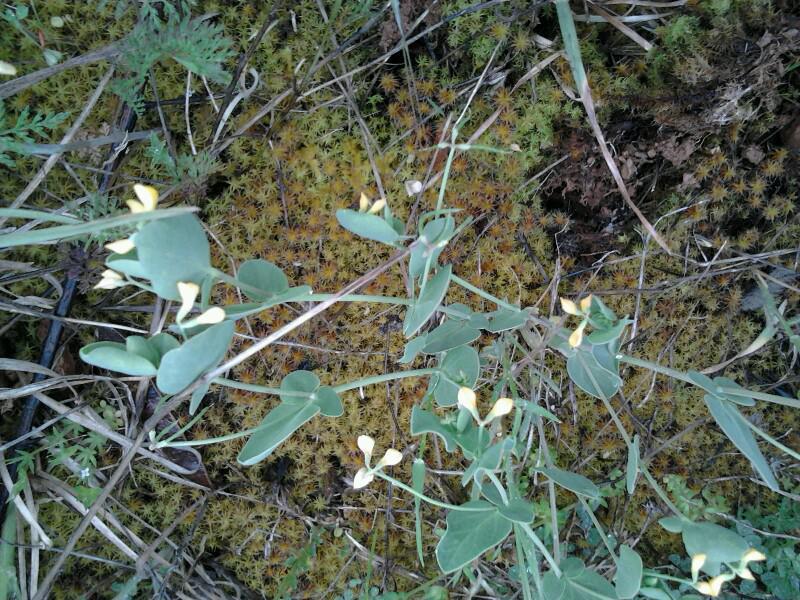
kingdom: Plantae
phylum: Tracheophyta
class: Magnoliopsida
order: Fabales
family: Fabaceae
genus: Coronilla
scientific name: Coronilla scorpioides
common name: Annual scorpion-vetch
